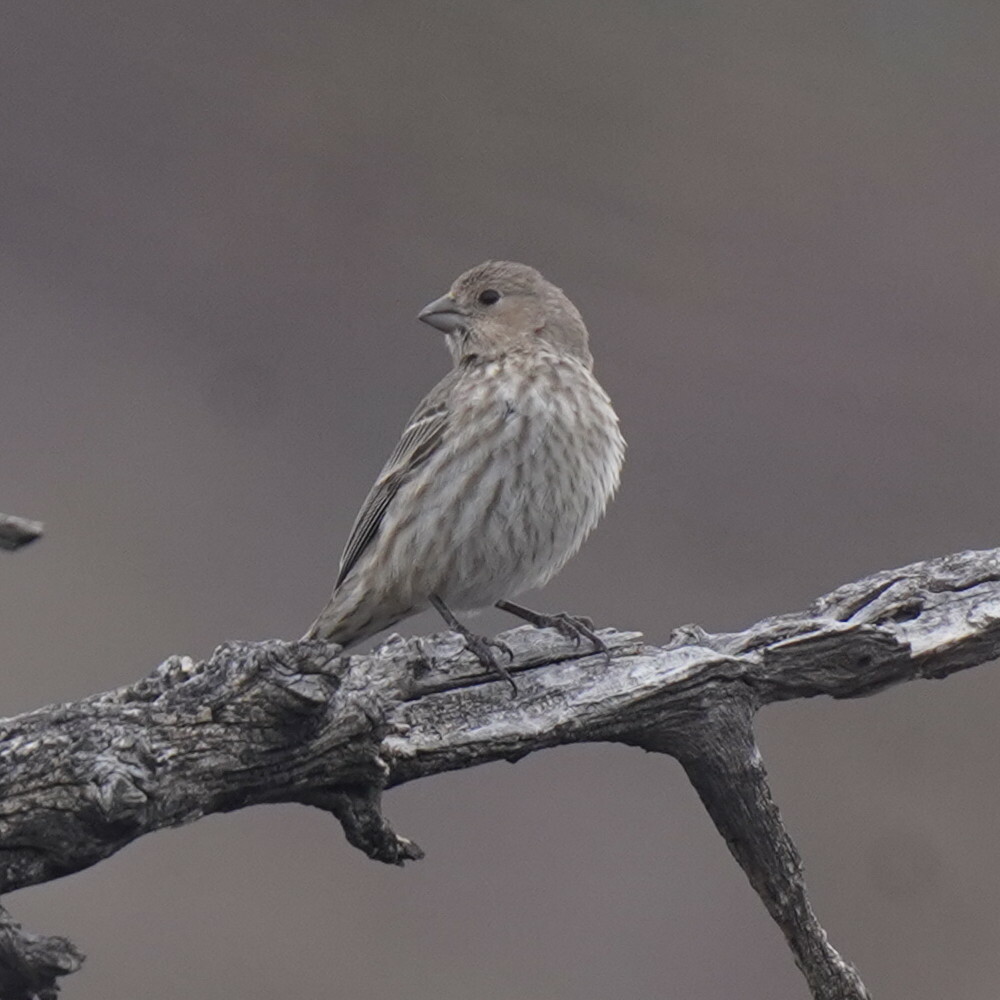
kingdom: Animalia
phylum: Chordata
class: Aves
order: Passeriformes
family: Fringillidae
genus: Haemorhous
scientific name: Haemorhous mexicanus
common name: House finch
